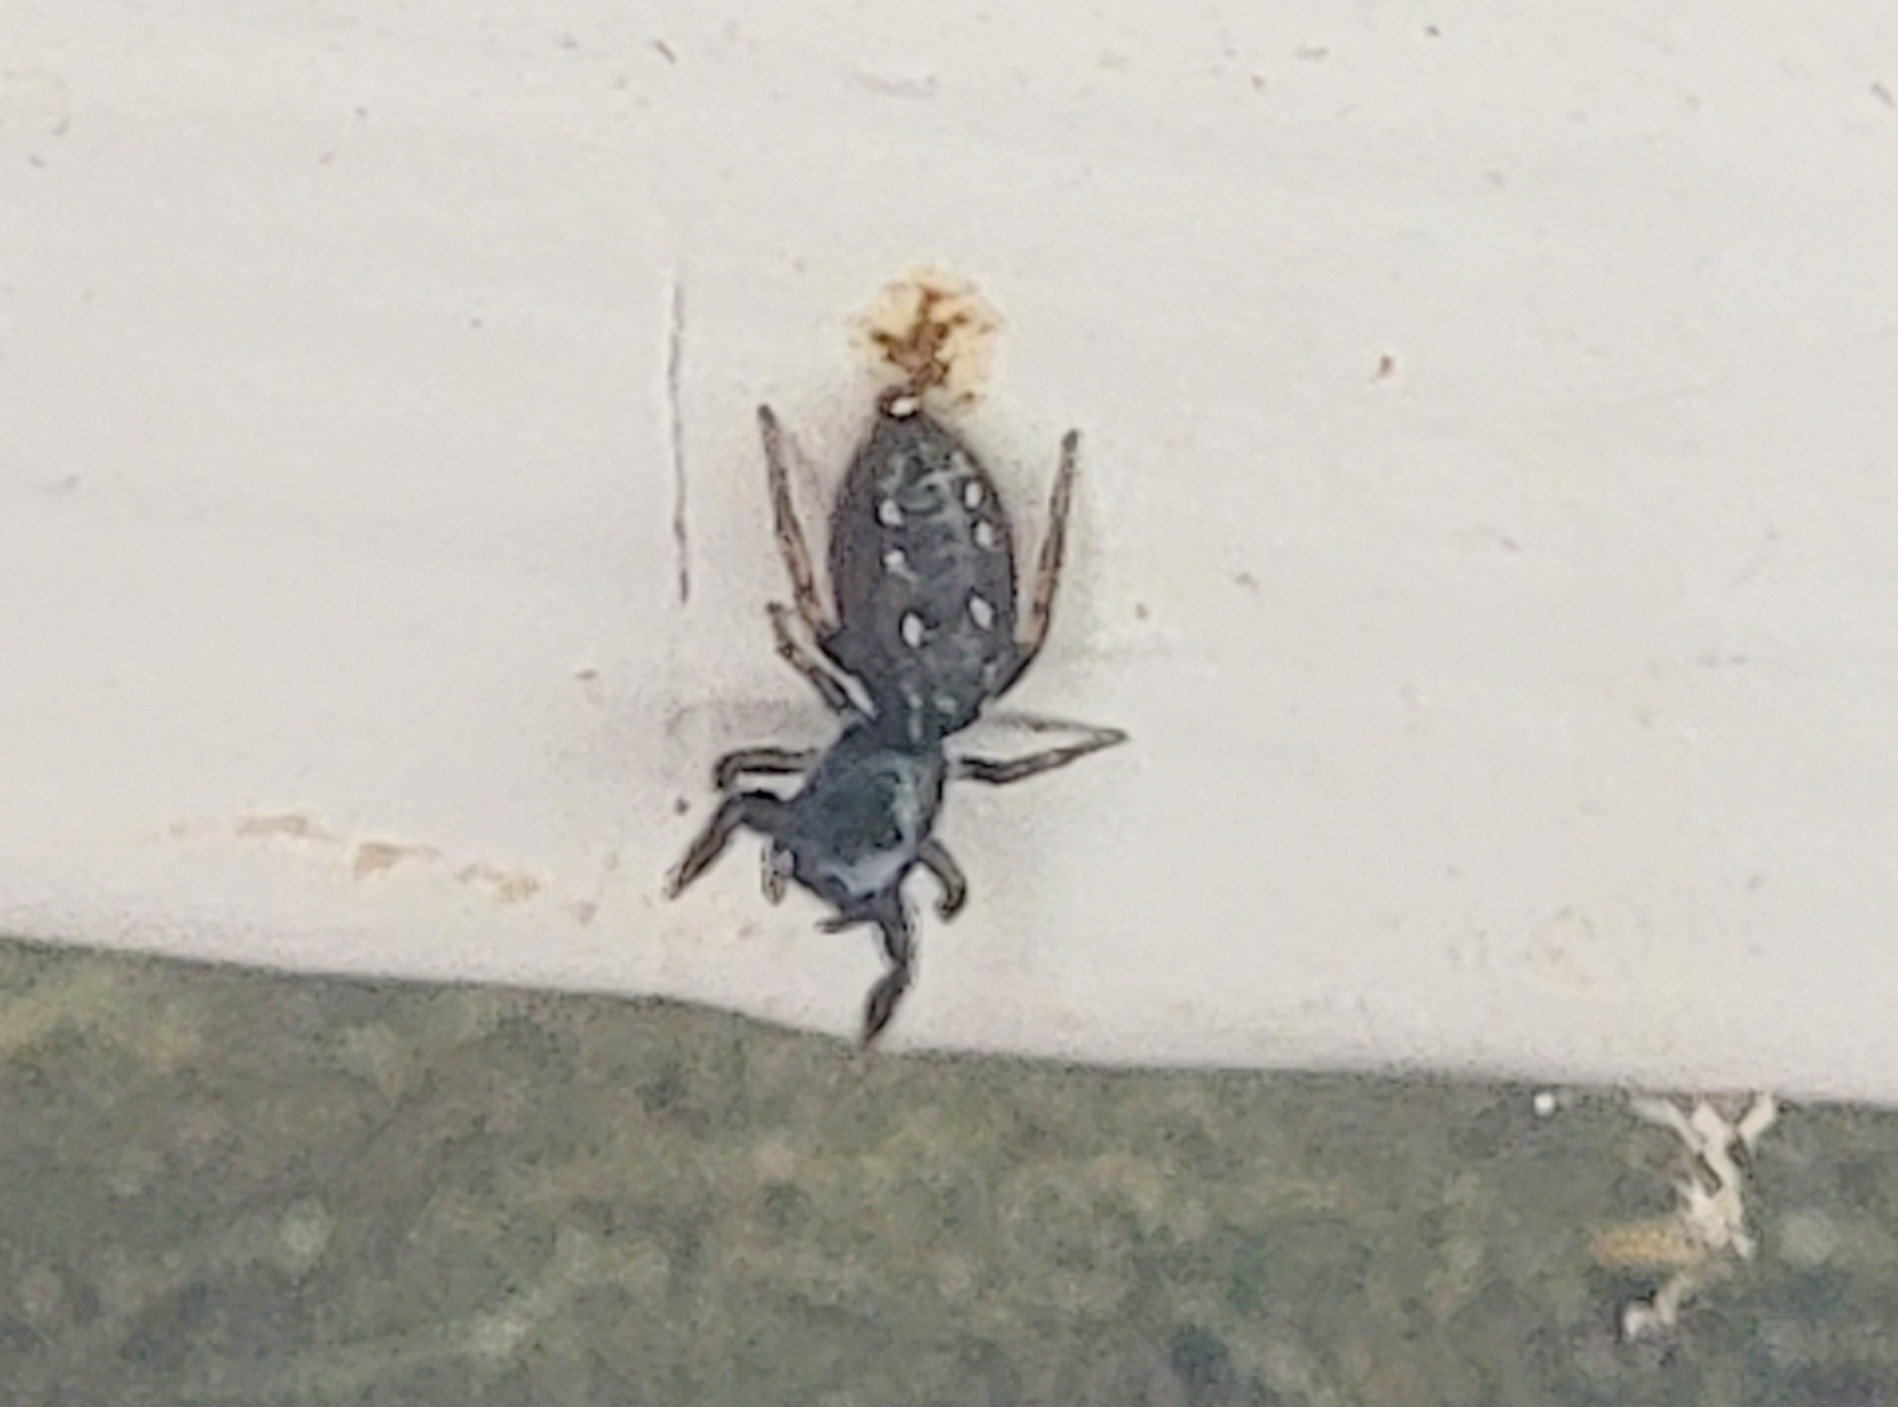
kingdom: Animalia
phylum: Arthropoda
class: Arachnida
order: Araneae
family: Salticidae
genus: Metacyrba
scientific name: Metacyrba taeniola
